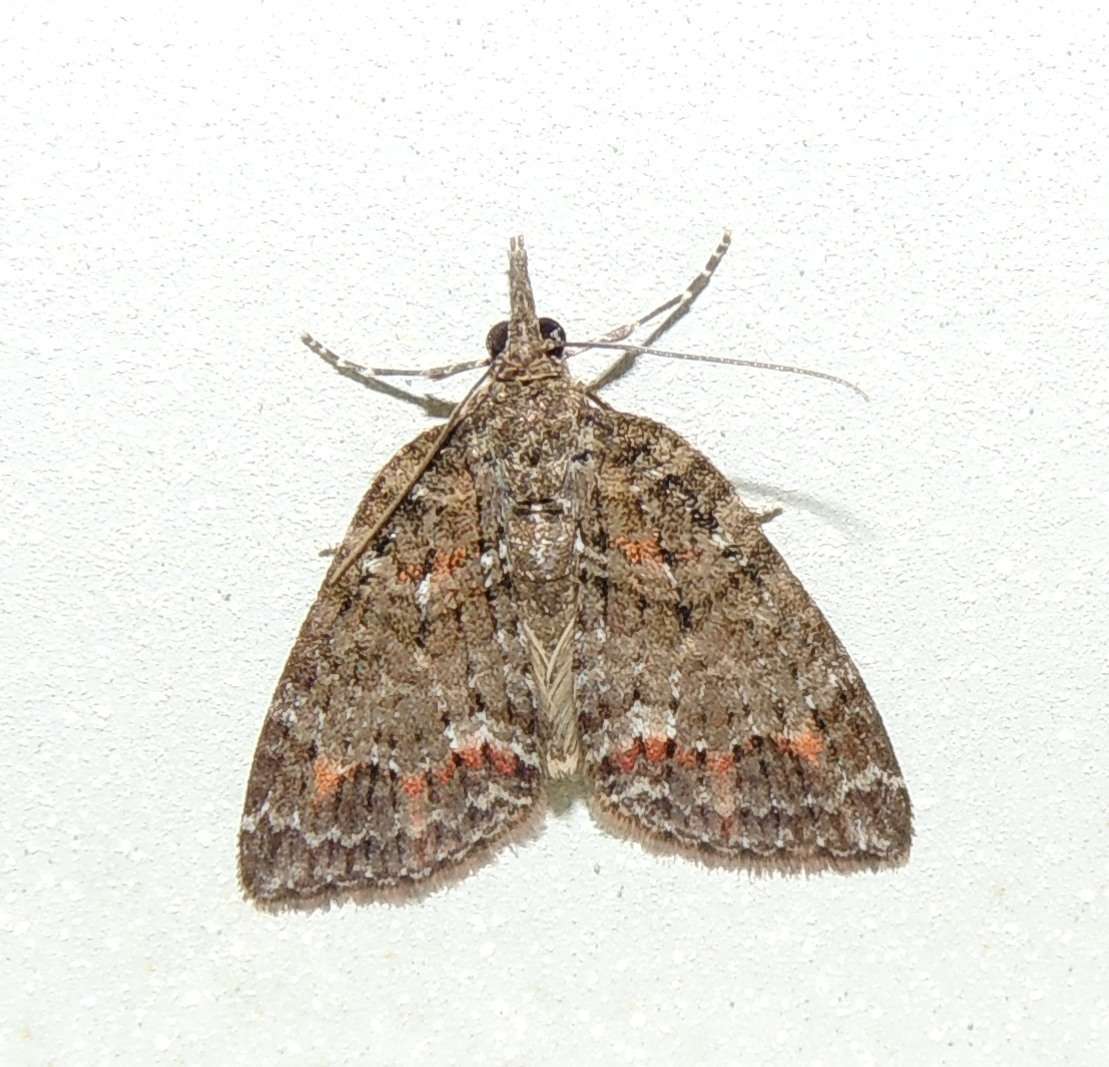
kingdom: Animalia
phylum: Arthropoda
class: Insecta
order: Lepidoptera
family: Geometridae
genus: Microdes
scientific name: Microdes squamulata
